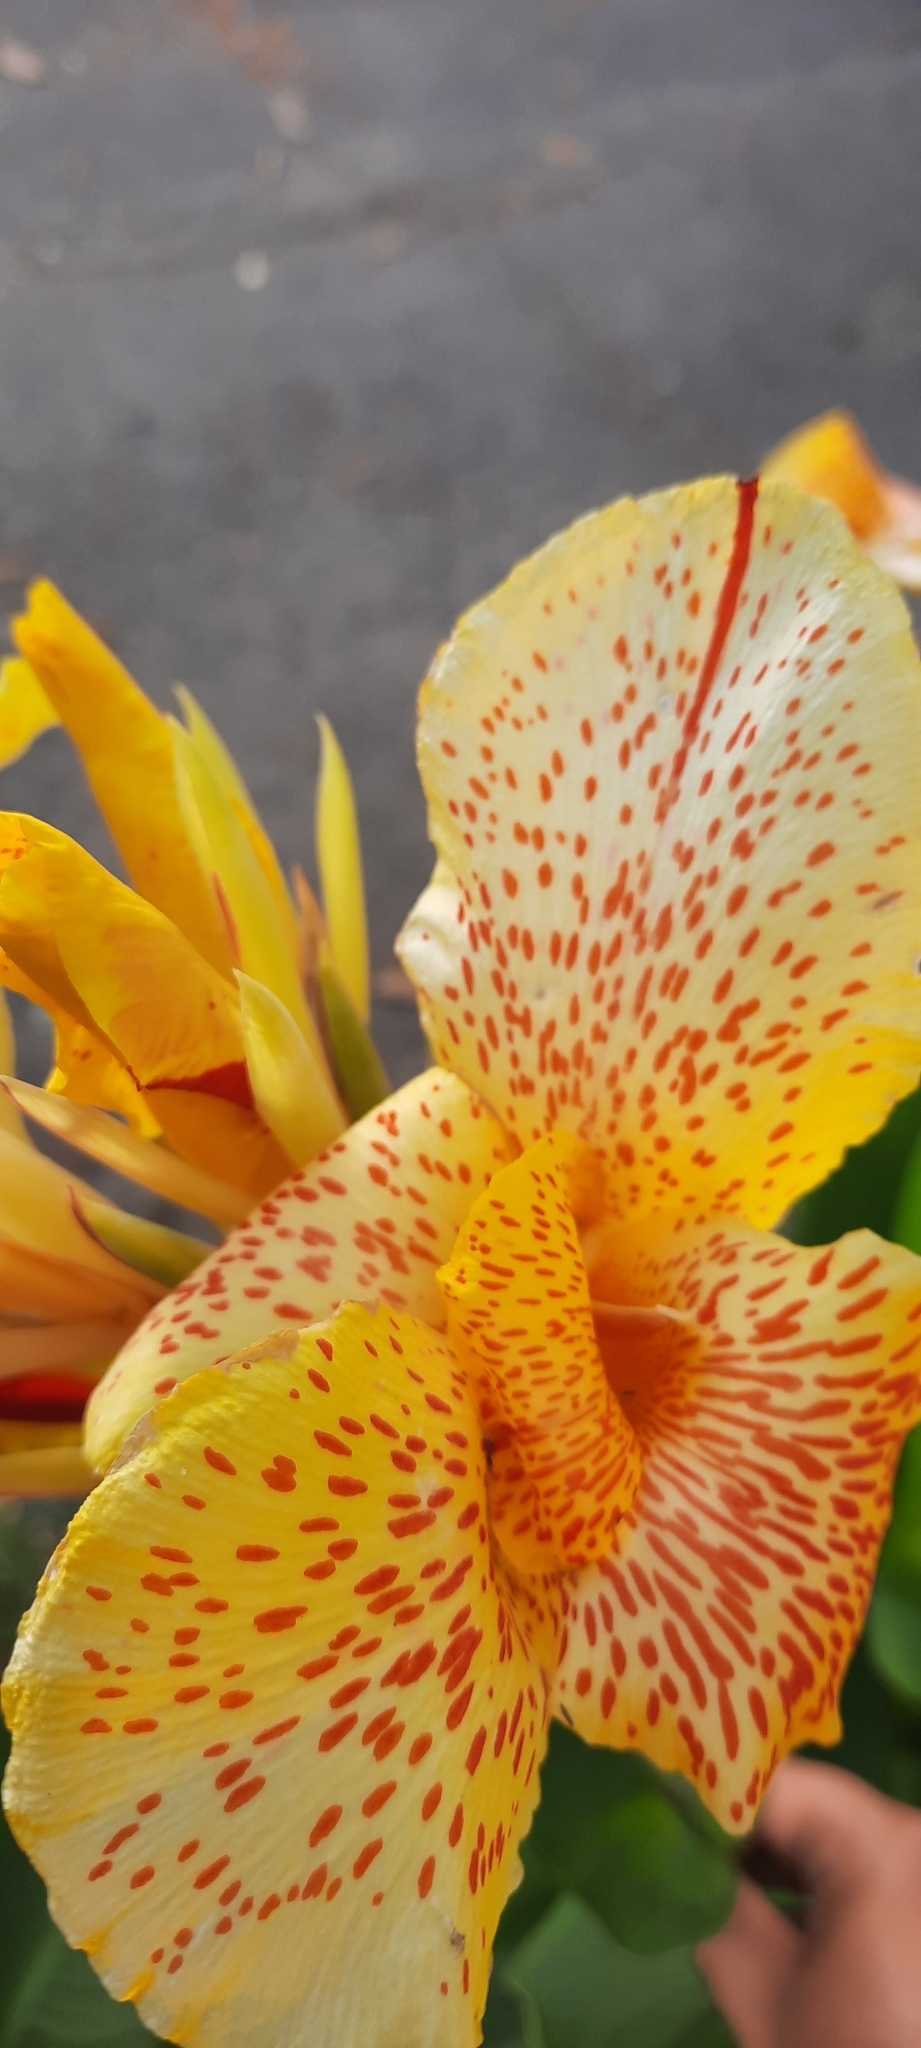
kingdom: Plantae
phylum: Tracheophyta
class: Liliopsida
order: Zingiberales
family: Cannaceae
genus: Canna
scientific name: Canna hybrida
